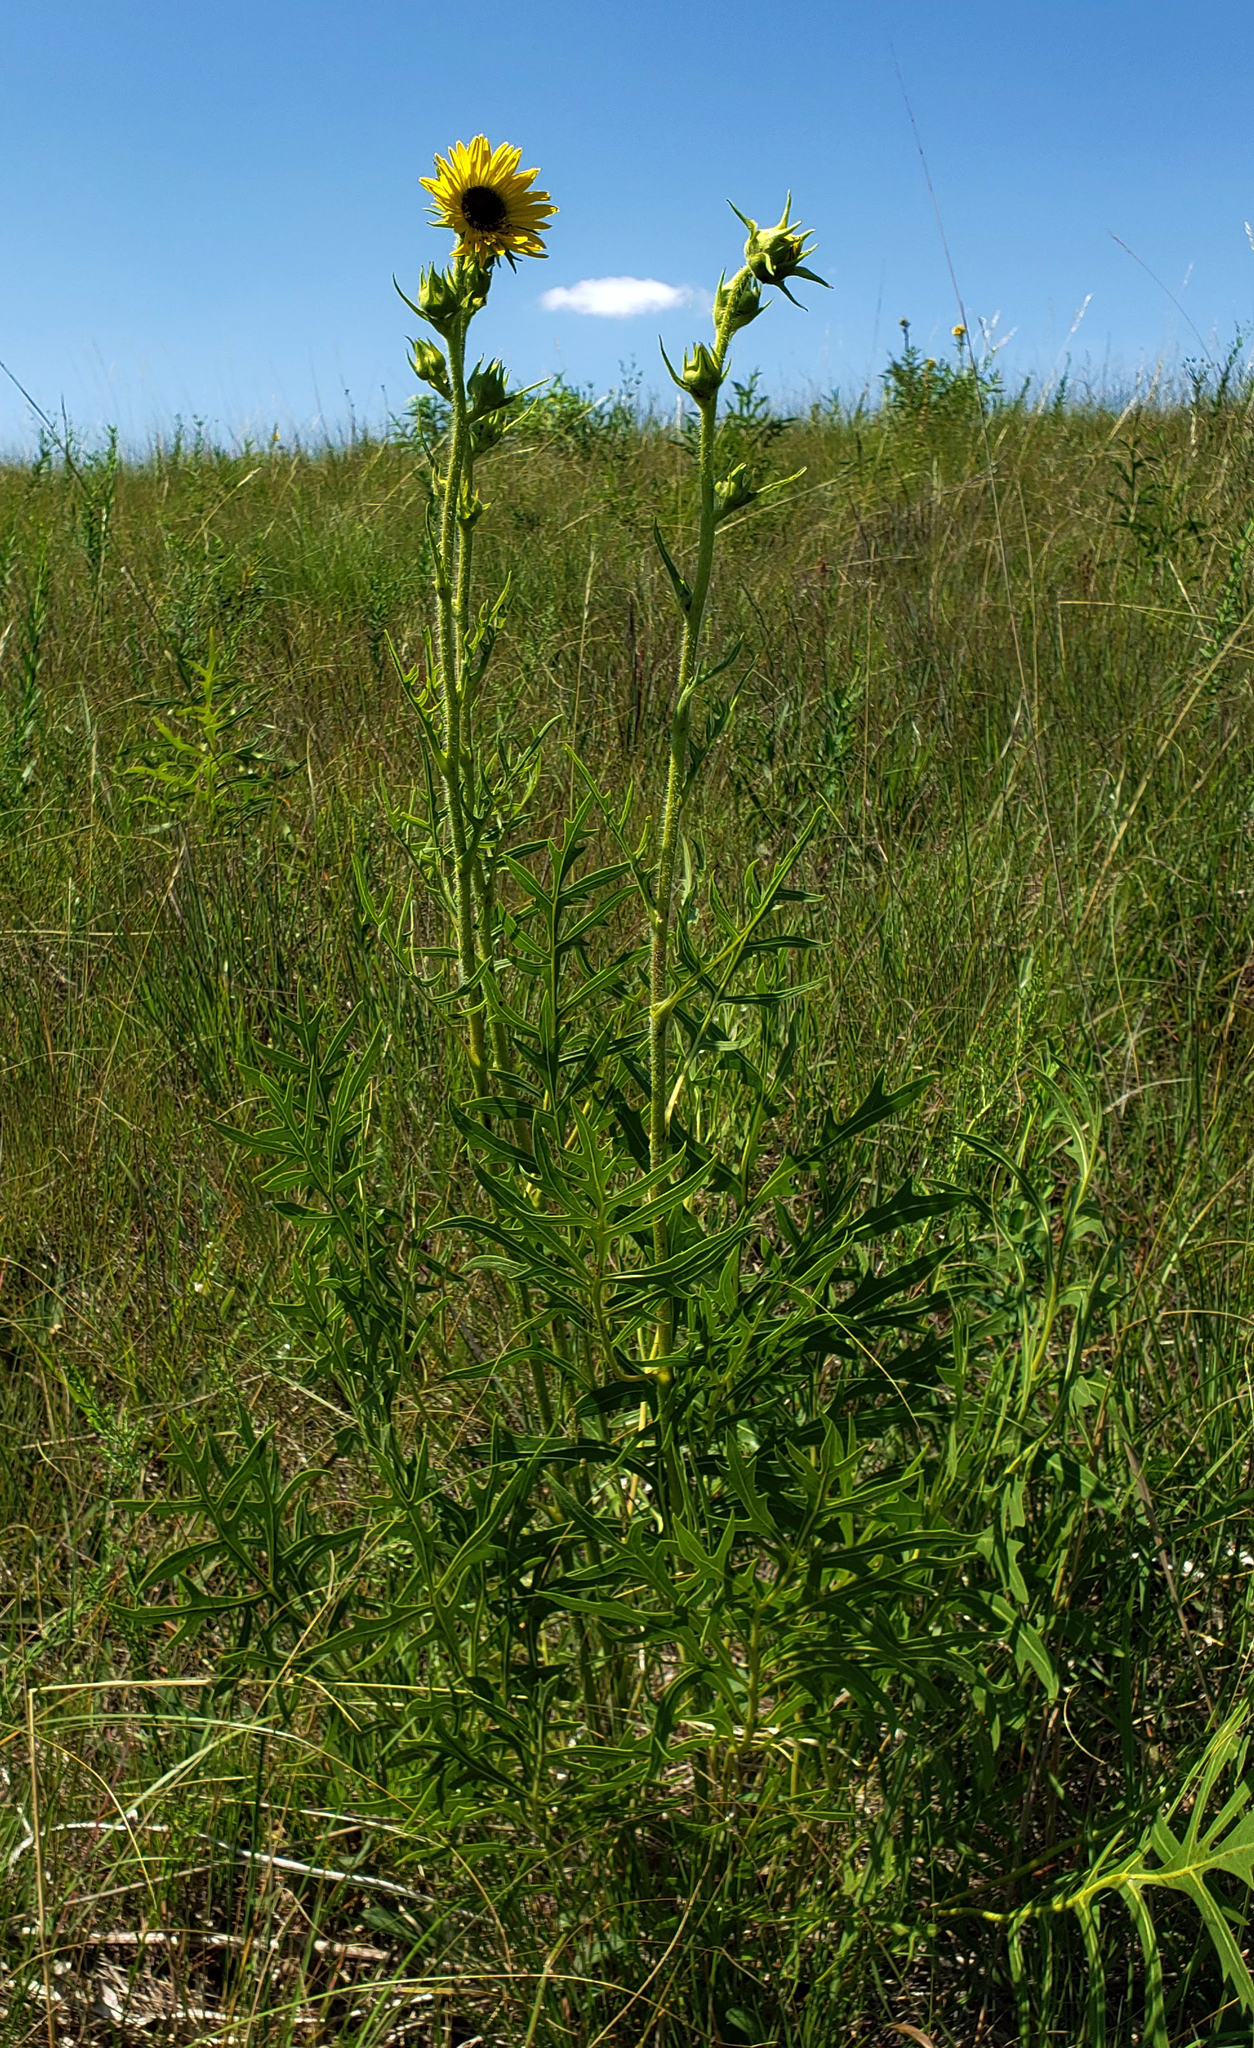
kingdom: Plantae
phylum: Tracheophyta
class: Magnoliopsida
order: Asterales
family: Asteraceae
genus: Silphium
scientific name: Silphium laciniatum
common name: Polarplant
